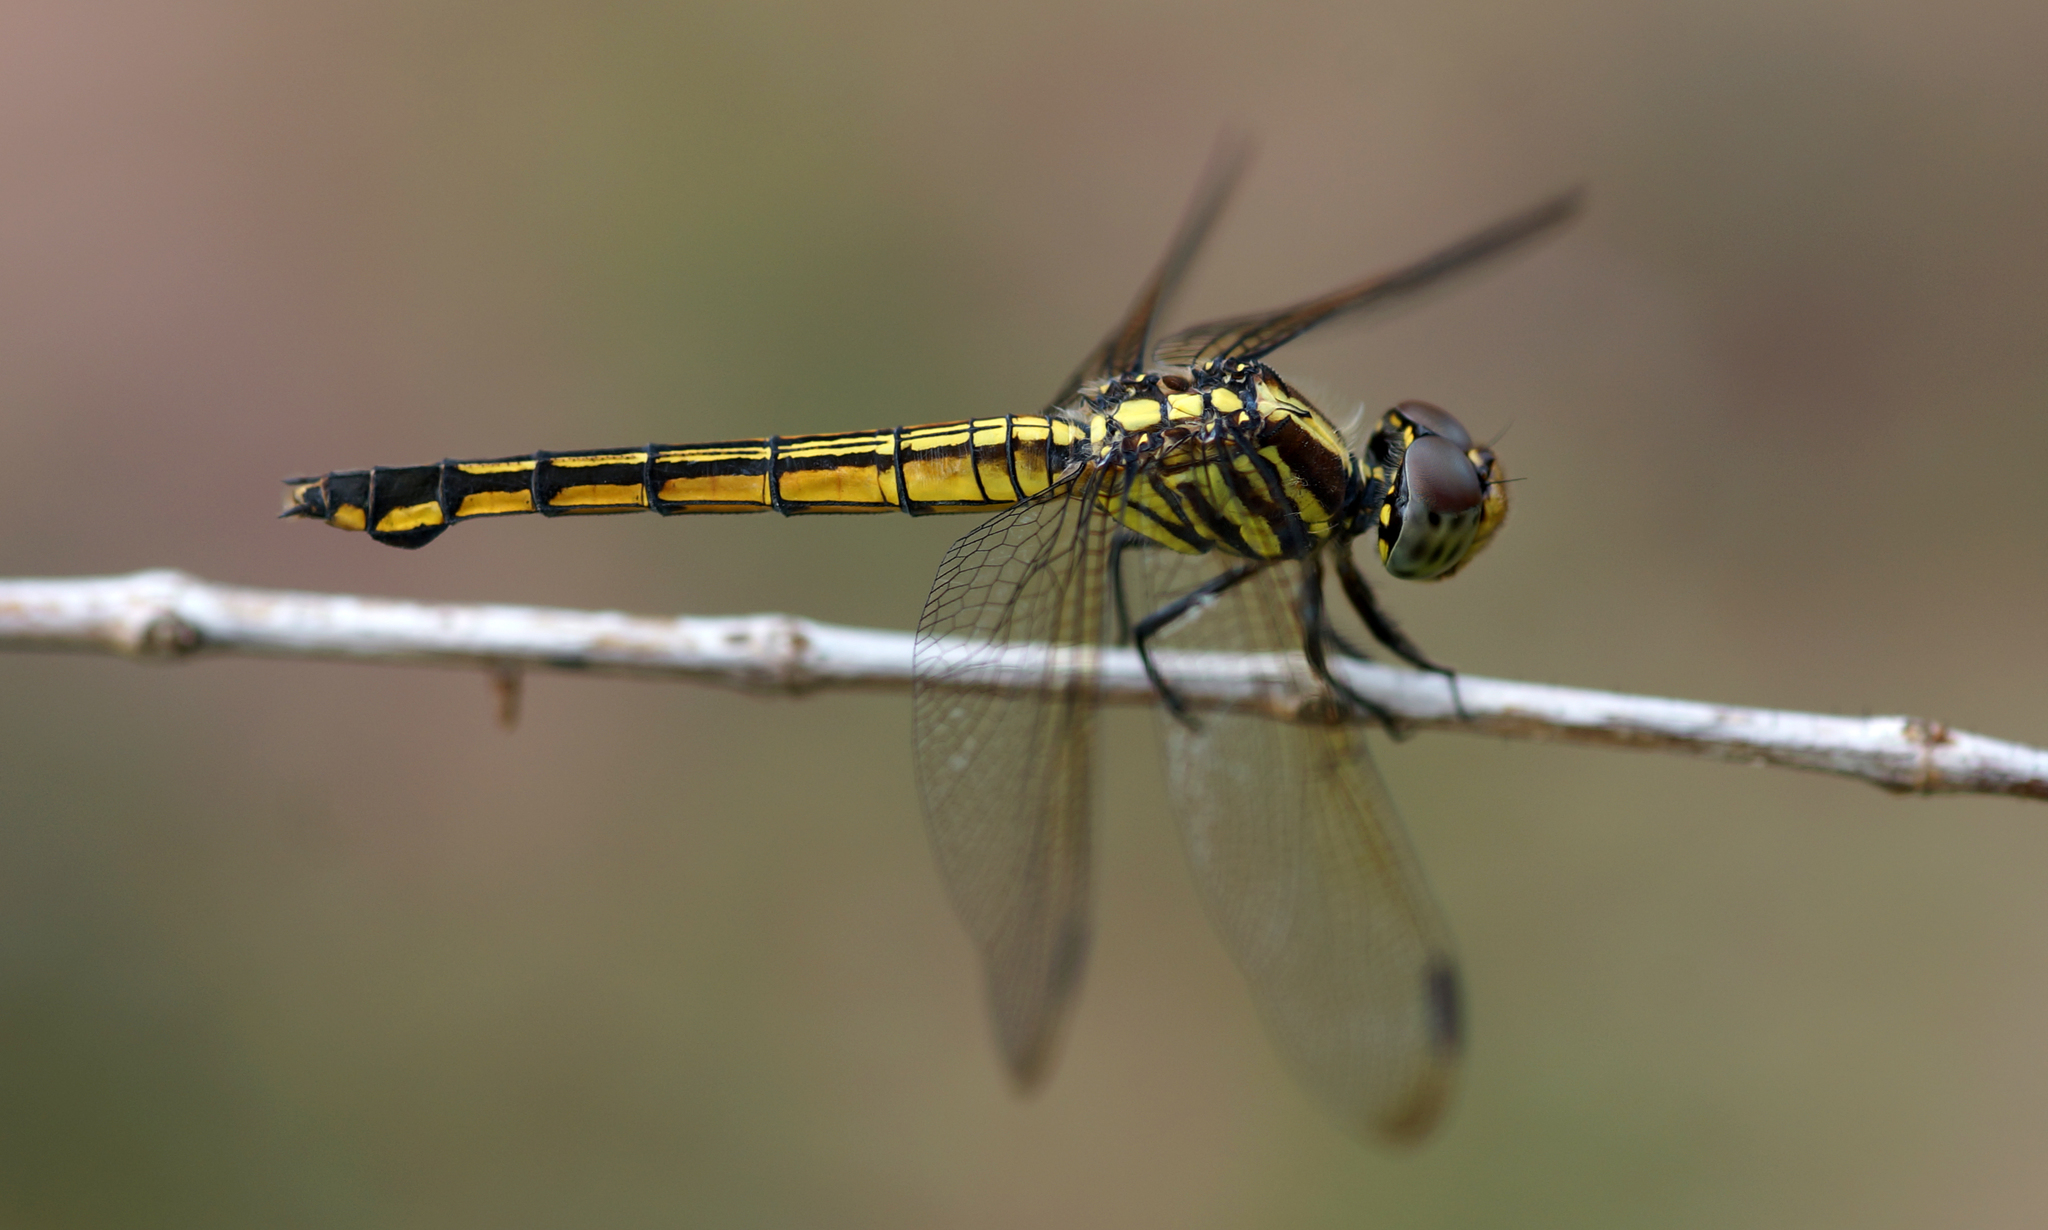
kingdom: Animalia
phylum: Arthropoda
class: Insecta
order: Odonata
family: Libellulidae
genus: Potamarcha
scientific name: Potamarcha congener
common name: Blue chaser
